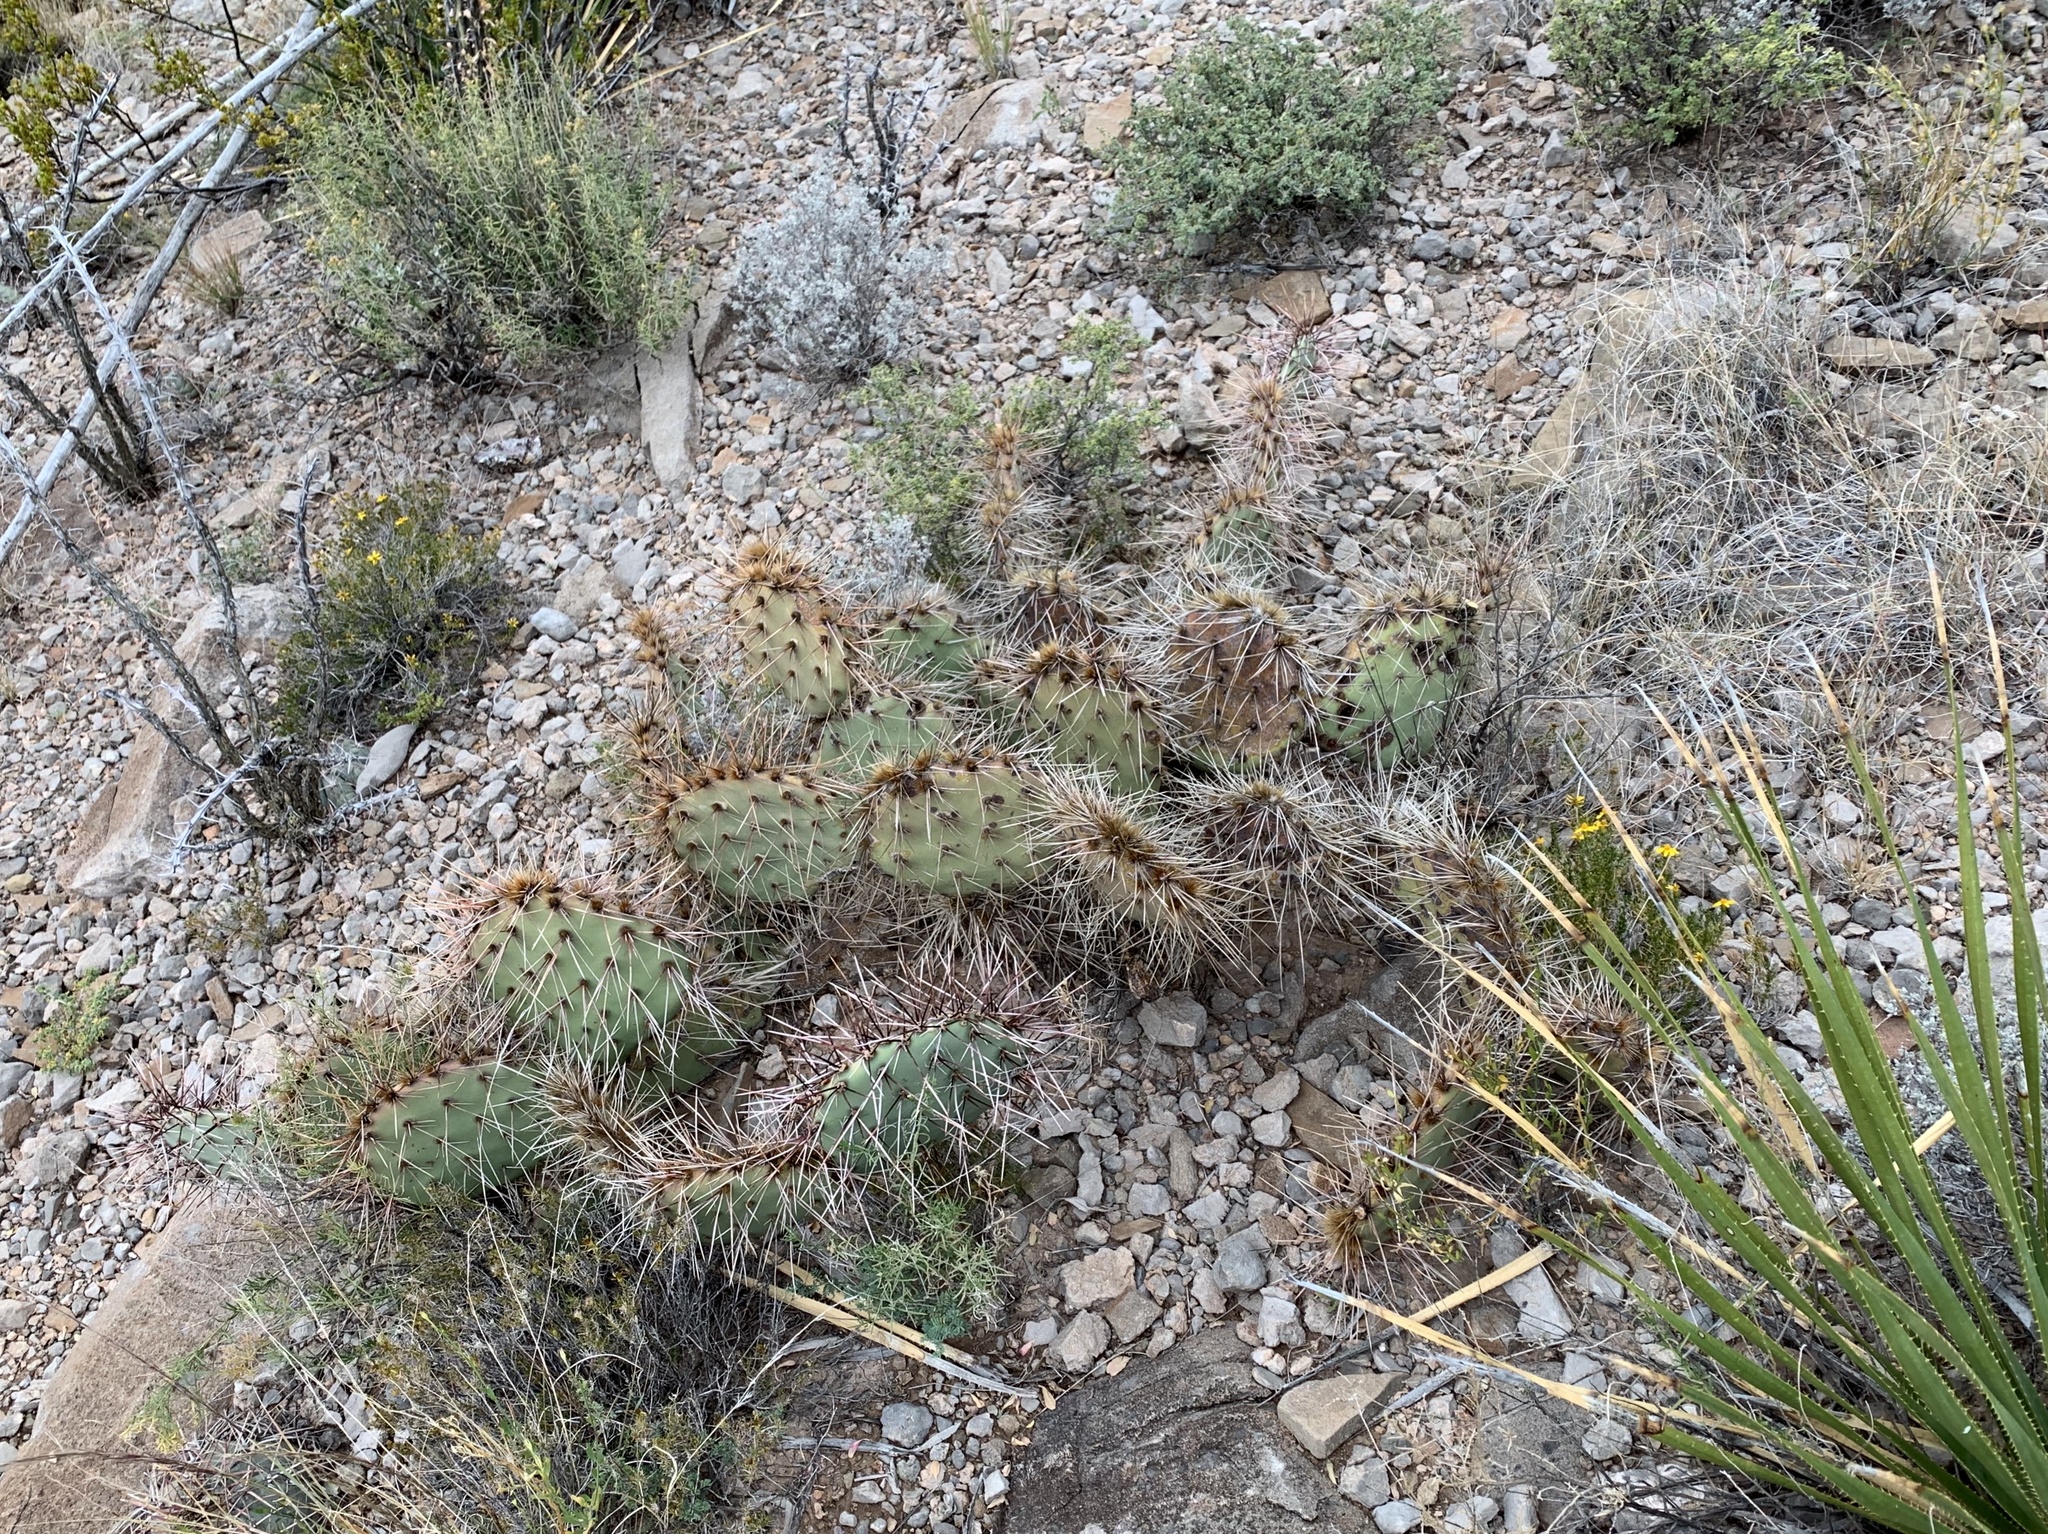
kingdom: Plantae
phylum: Tracheophyta
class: Magnoliopsida
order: Caryophyllales
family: Cactaceae
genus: Opuntia
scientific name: Opuntia macrorhiza
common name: Grassland pricklypear
